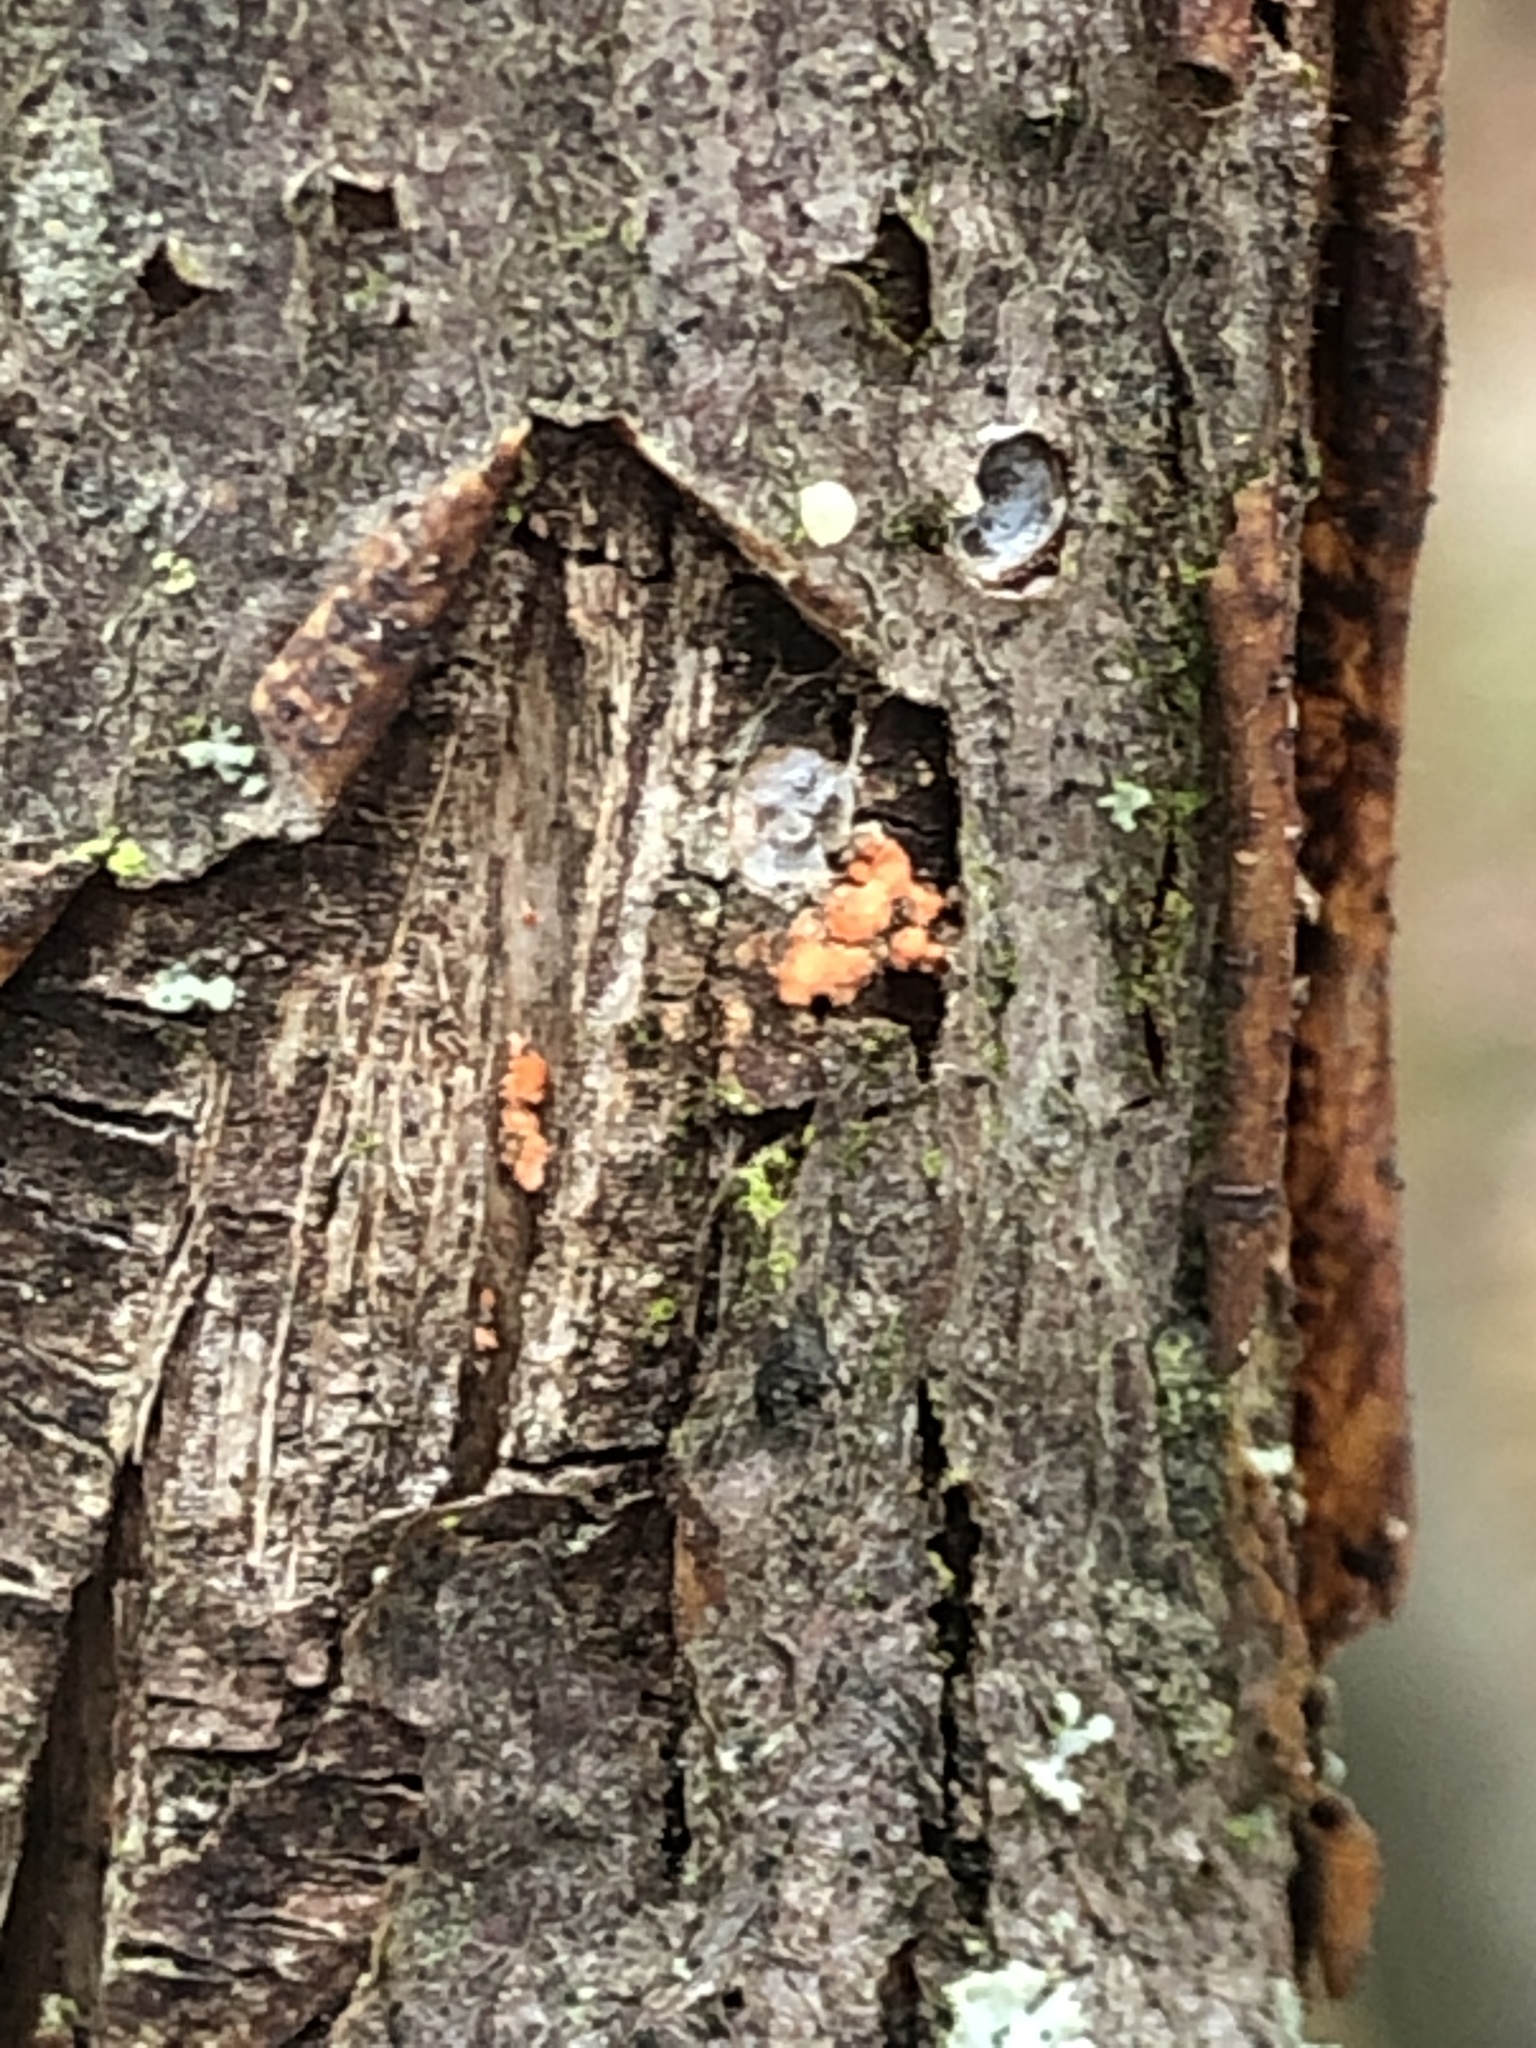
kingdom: Fungi
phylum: Ascomycota
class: Sordariomycetes
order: Hypocreales
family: Nectriaceae
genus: Nectria
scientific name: Nectria cinnabarina
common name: Coral spot
